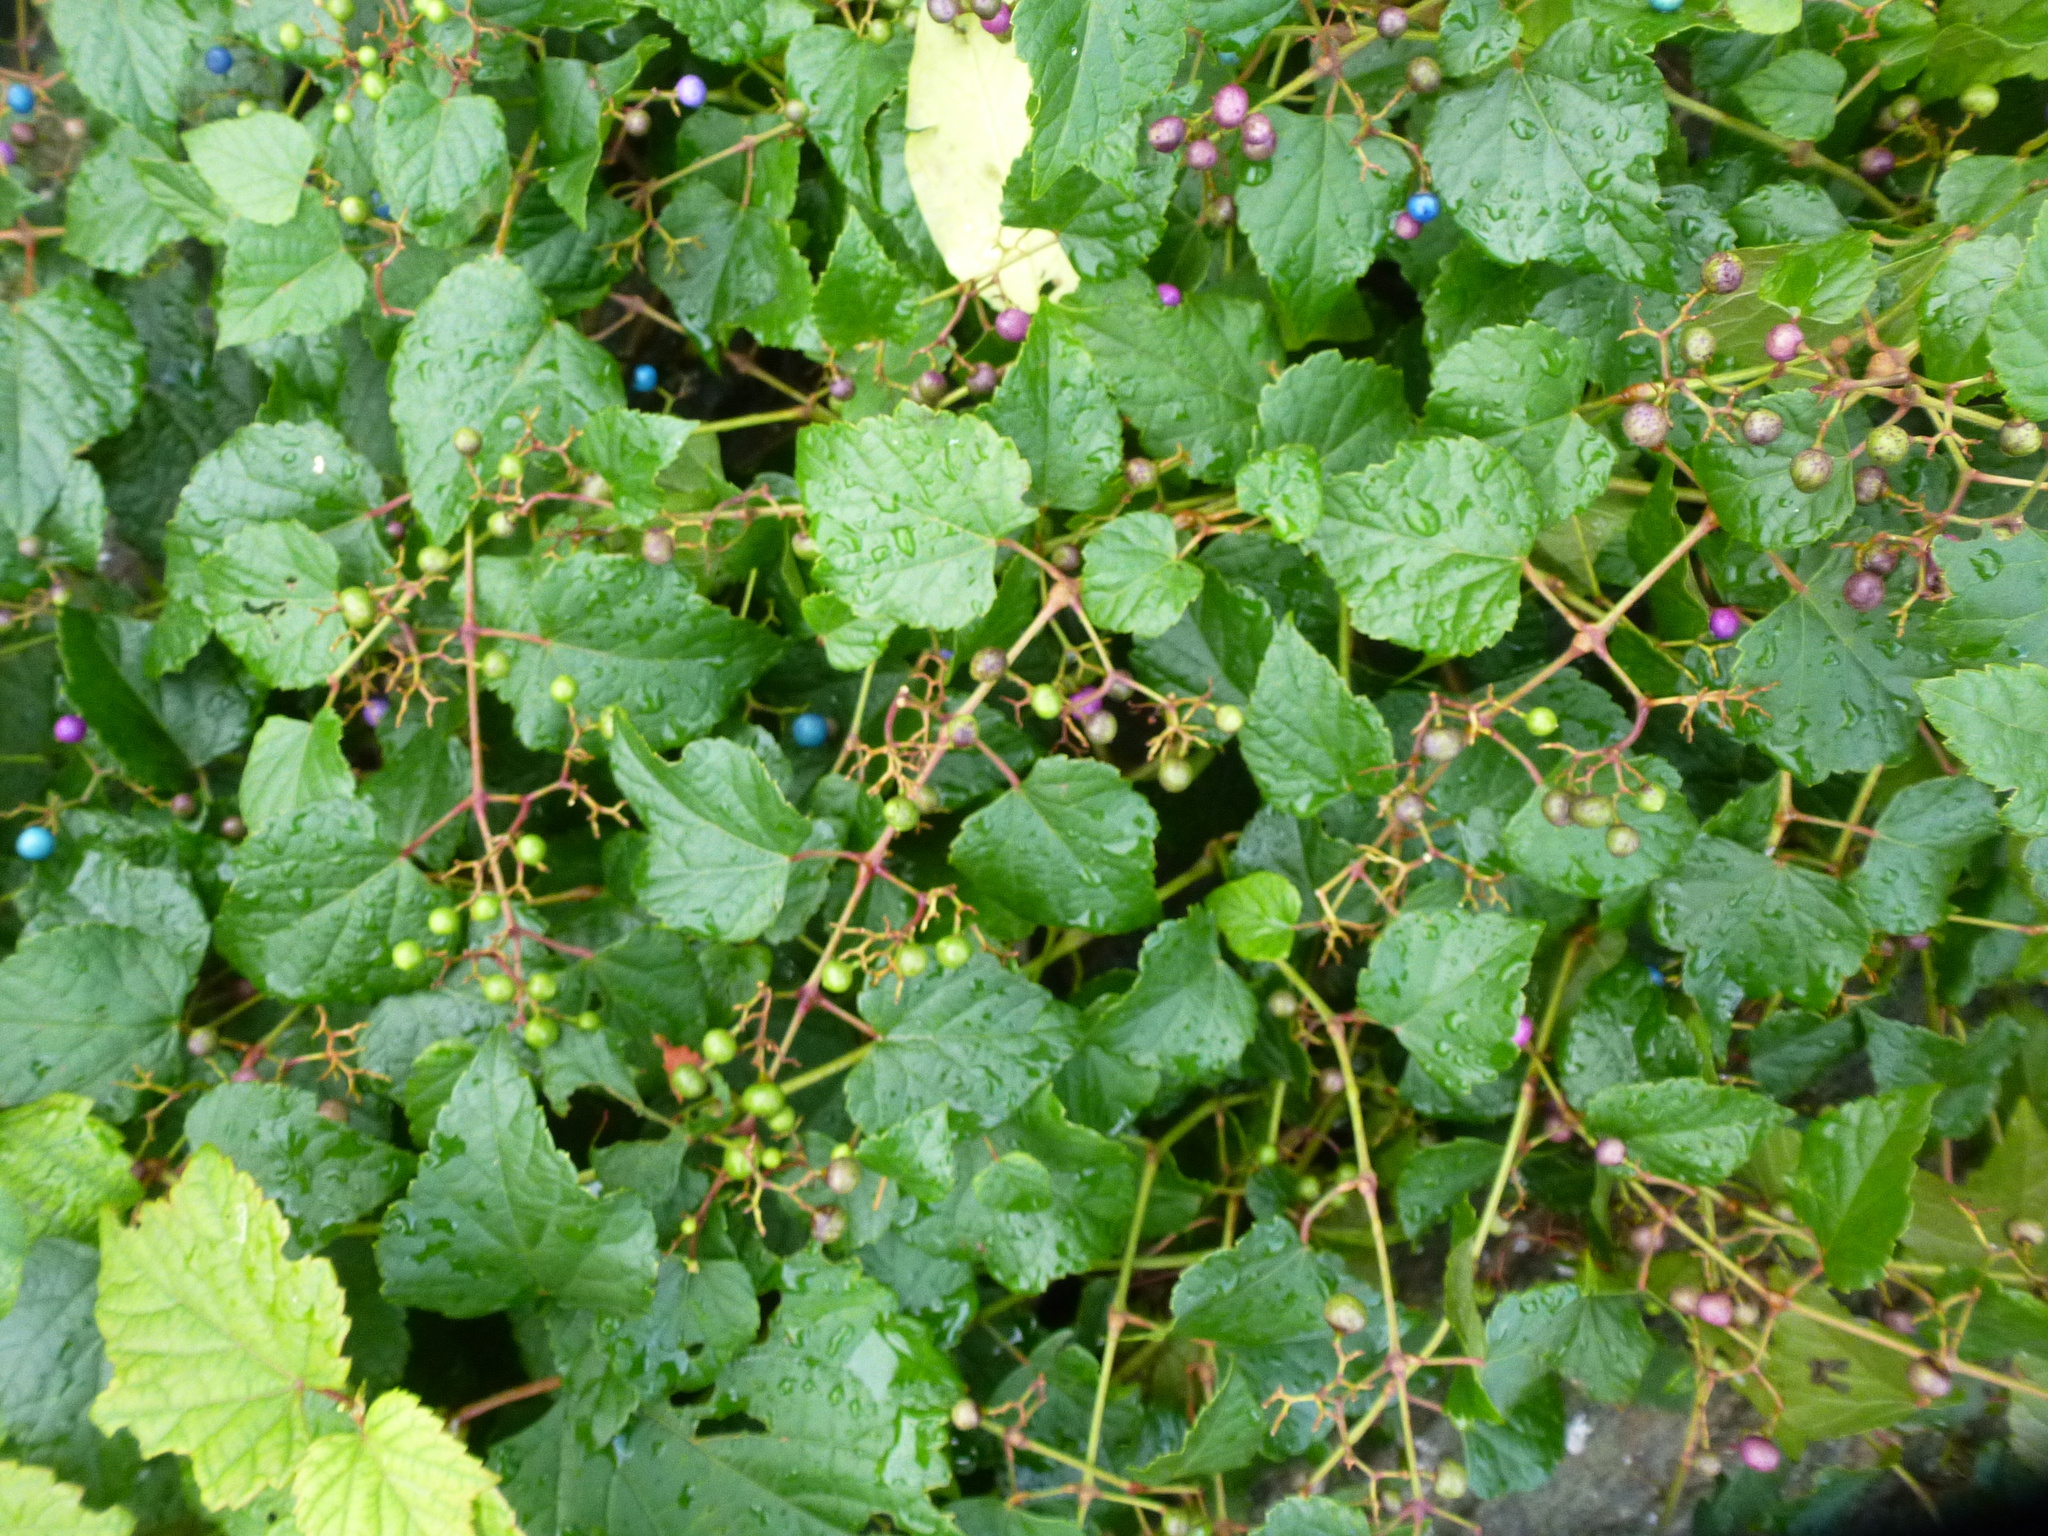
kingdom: Plantae
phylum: Tracheophyta
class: Magnoliopsida
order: Vitales
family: Vitaceae
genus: Ampelopsis
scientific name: Ampelopsis glandulosa
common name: Amur peppervine
